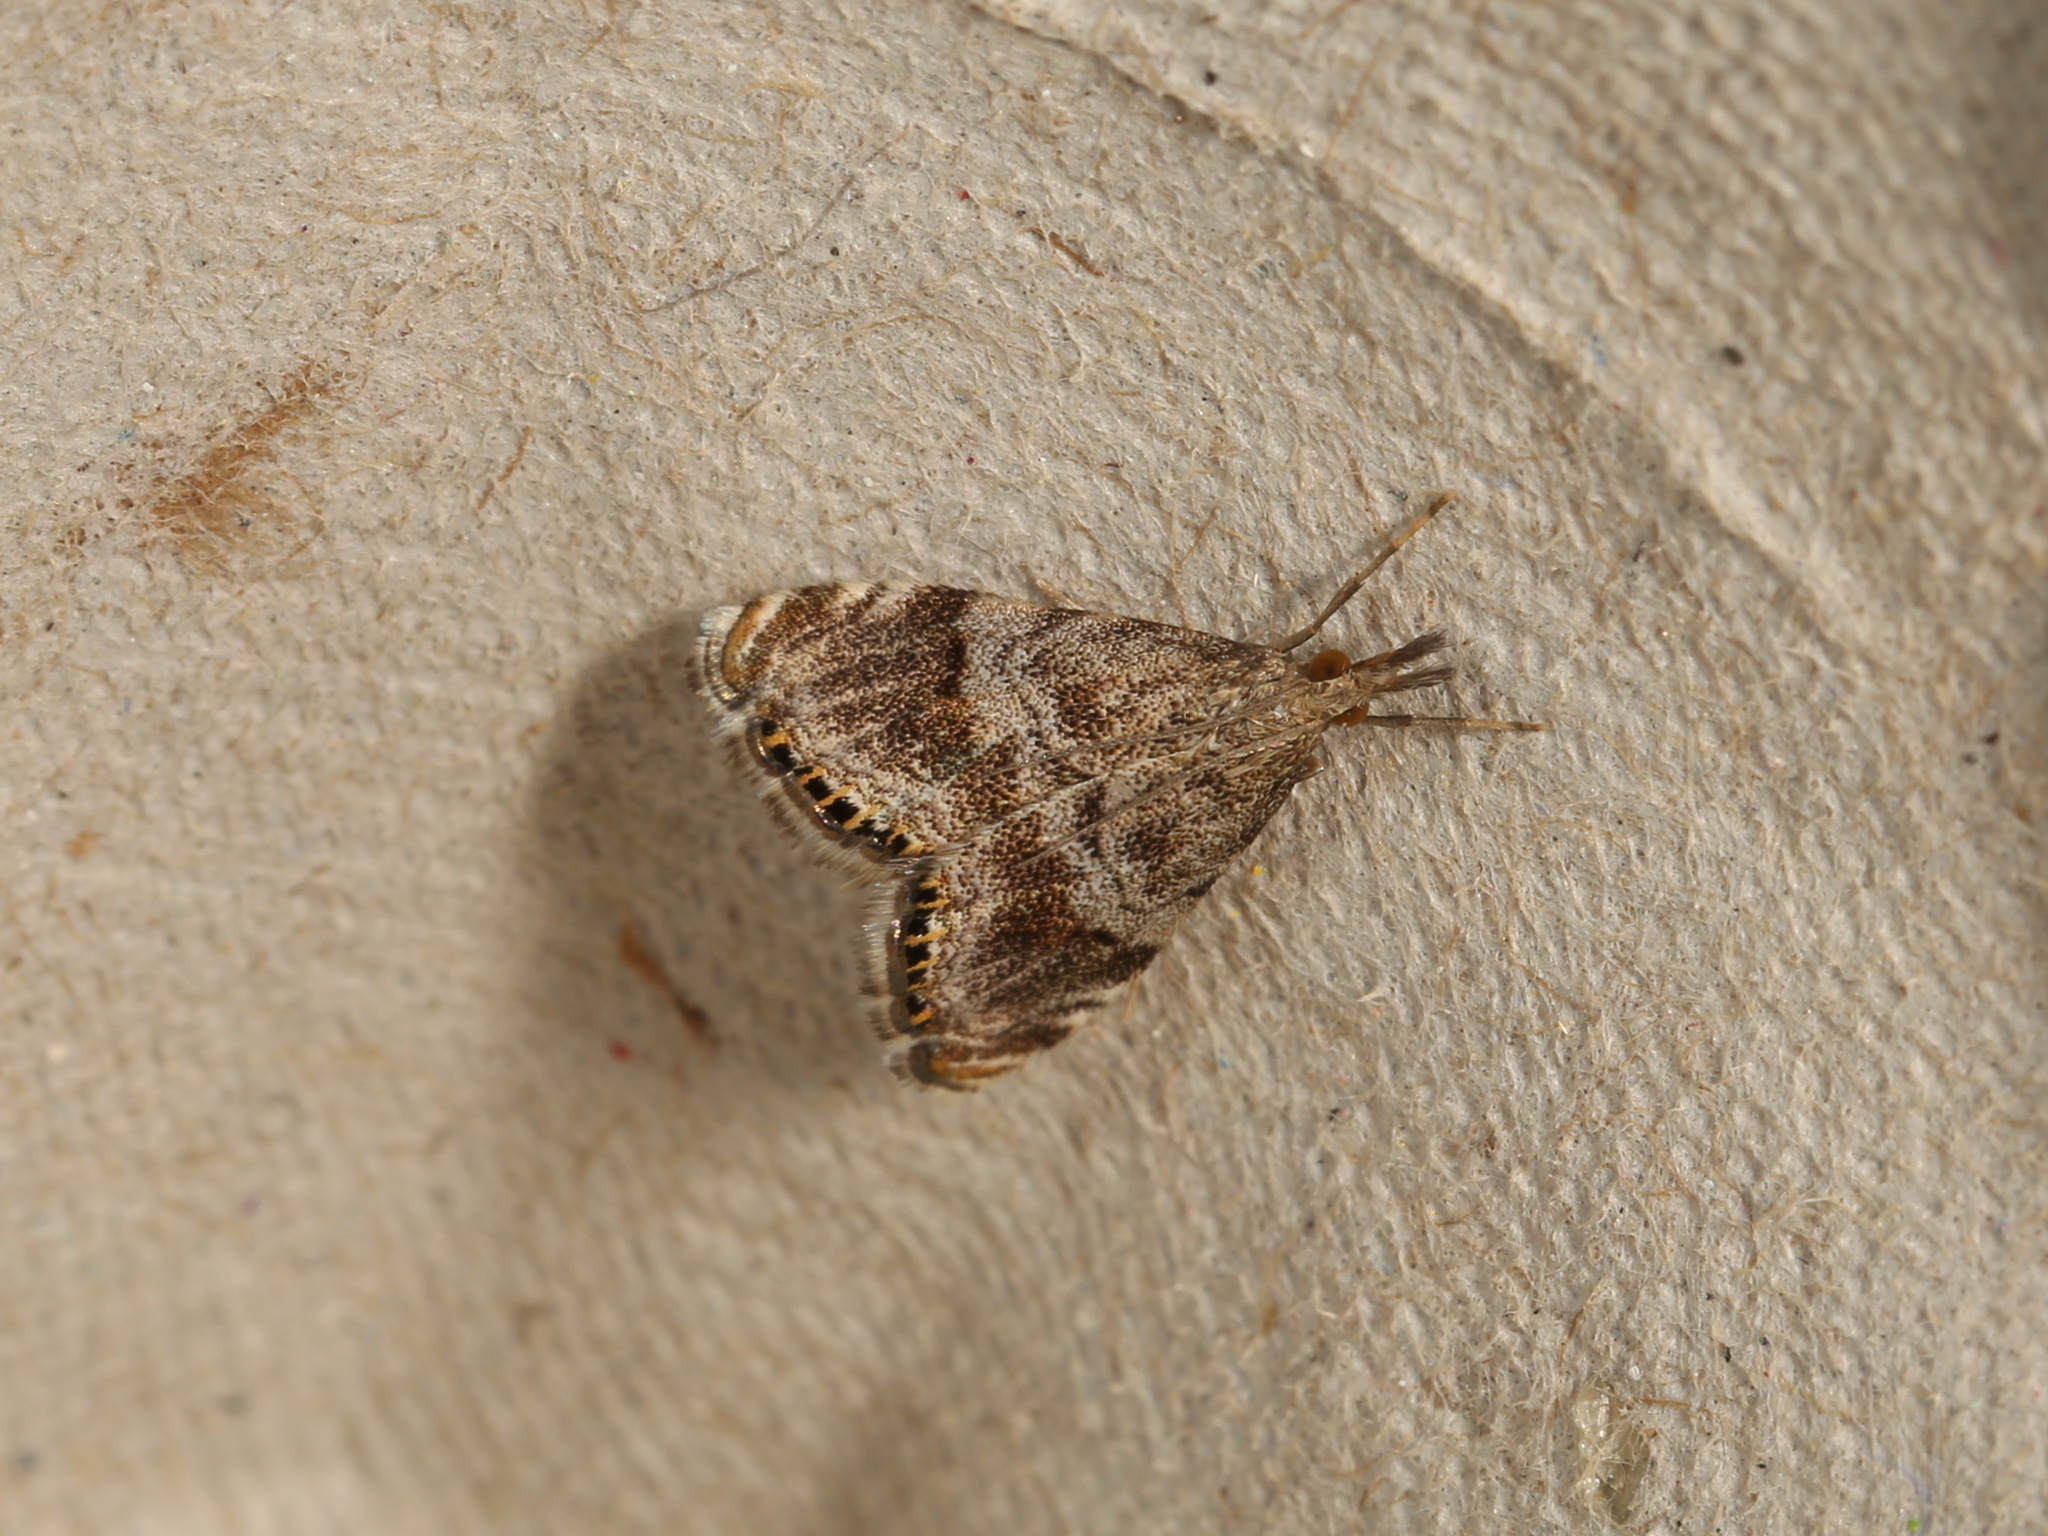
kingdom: Animalia
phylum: Arthropoda
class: Insecta
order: Lepidoptera
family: Crambidae
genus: Glaucocharis
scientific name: Glaucocharis dilatella
